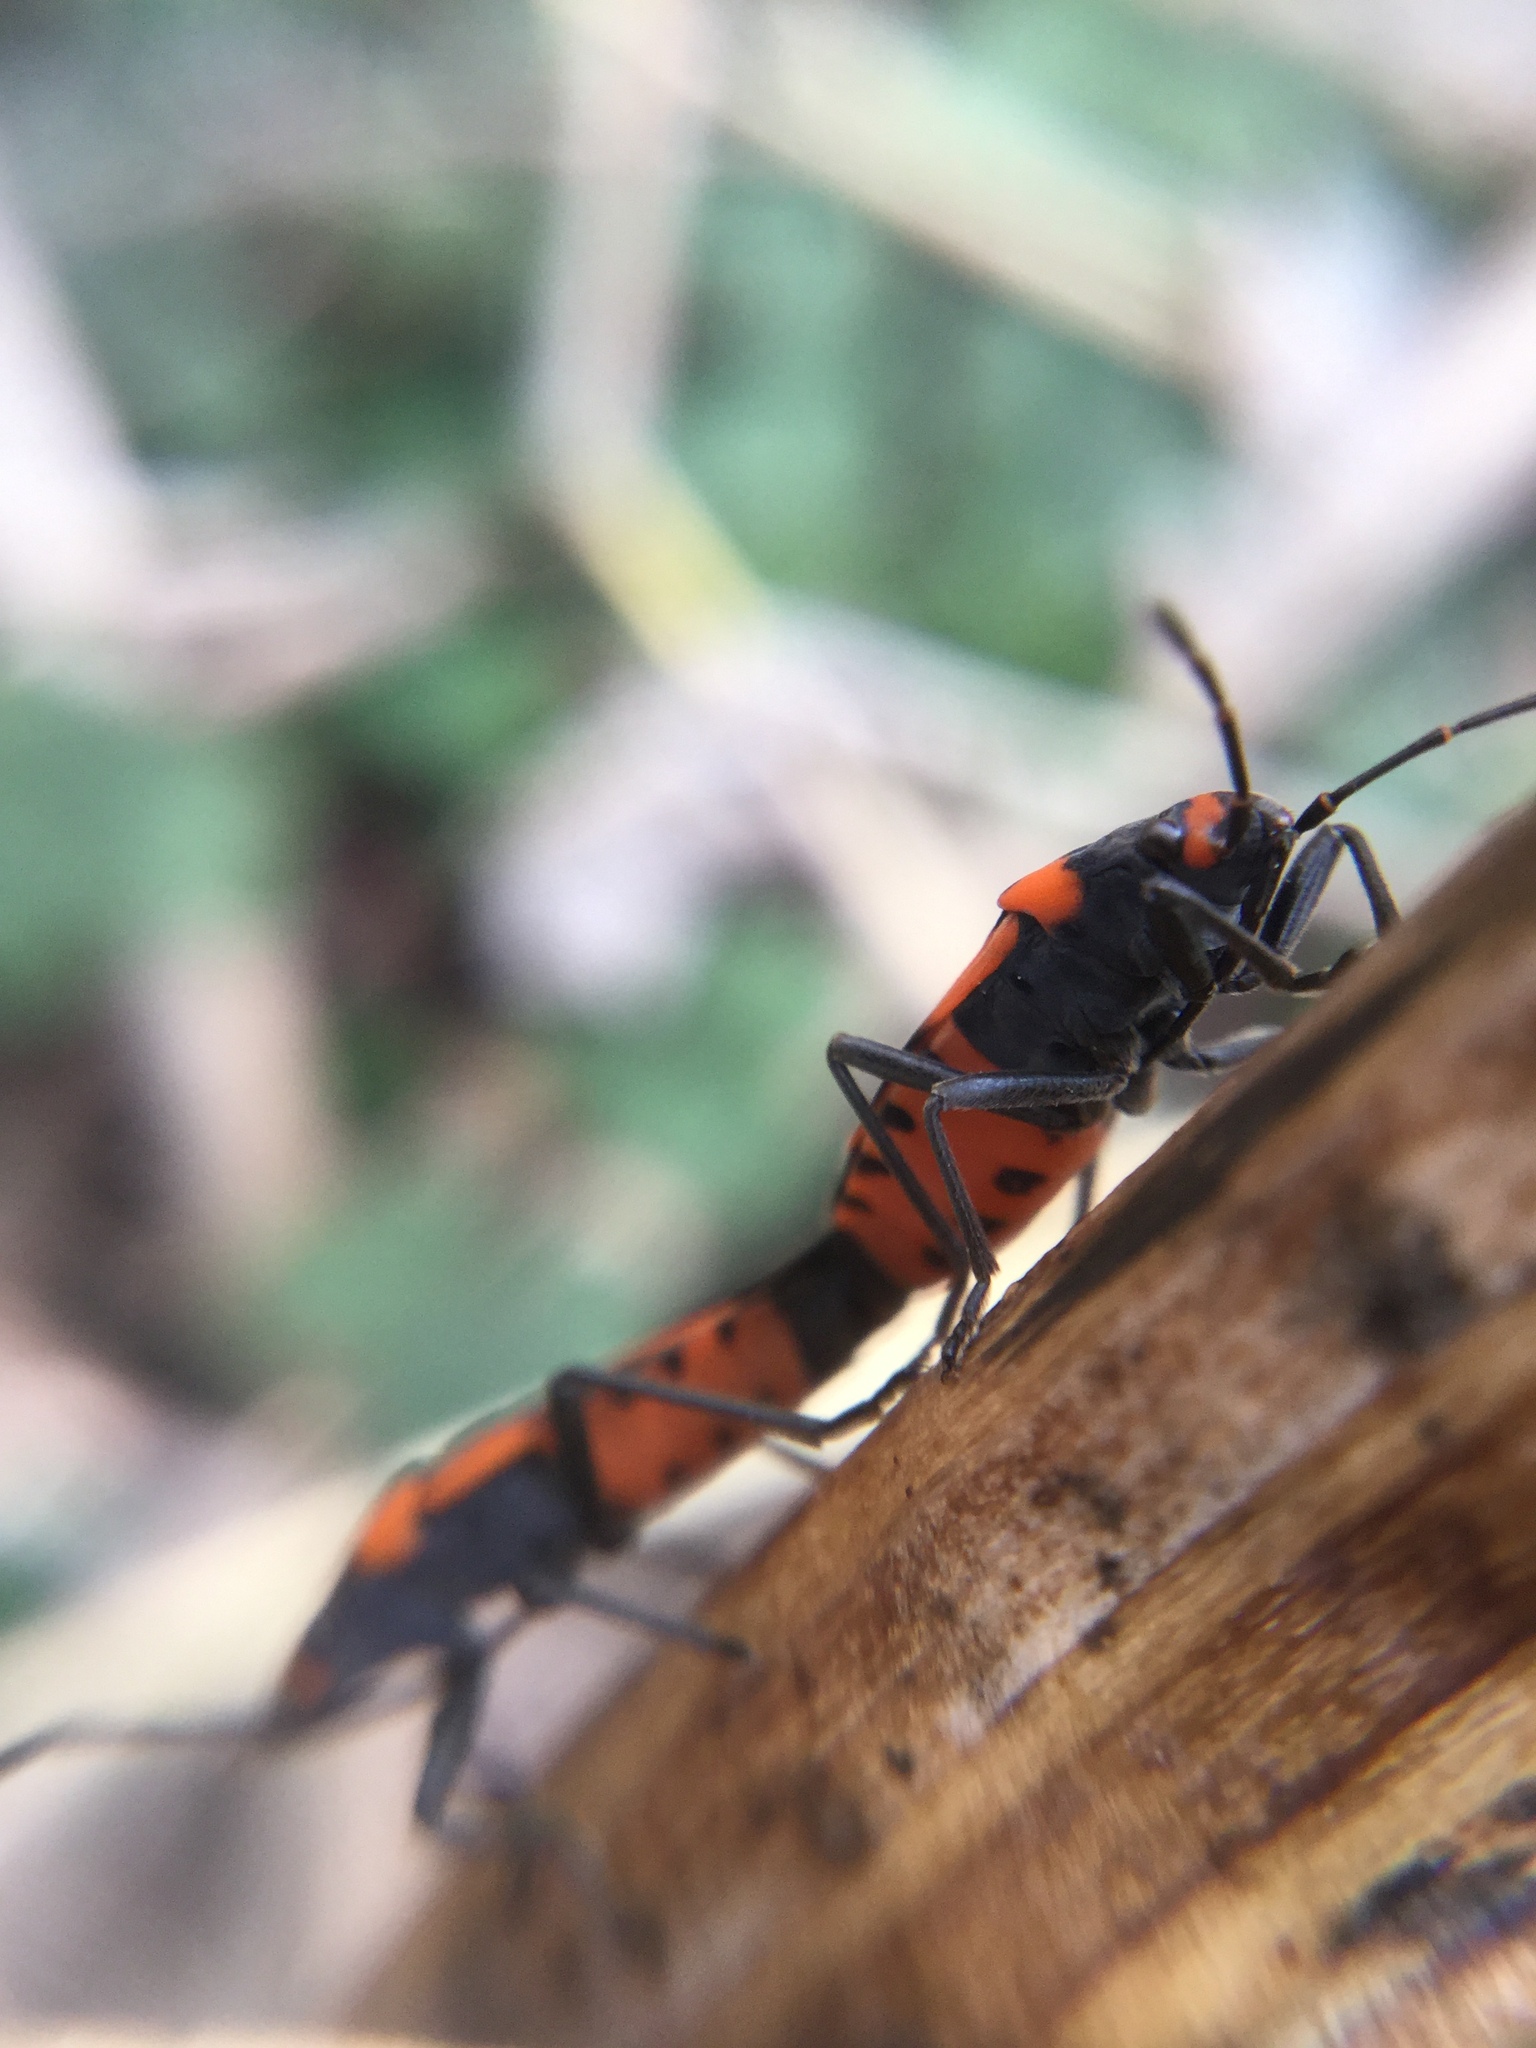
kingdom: Animalia
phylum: Arthropoda
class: Insecta
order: Hemiptera
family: Lygaeidae
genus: Lygaeus
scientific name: Lygaeus turcicus
